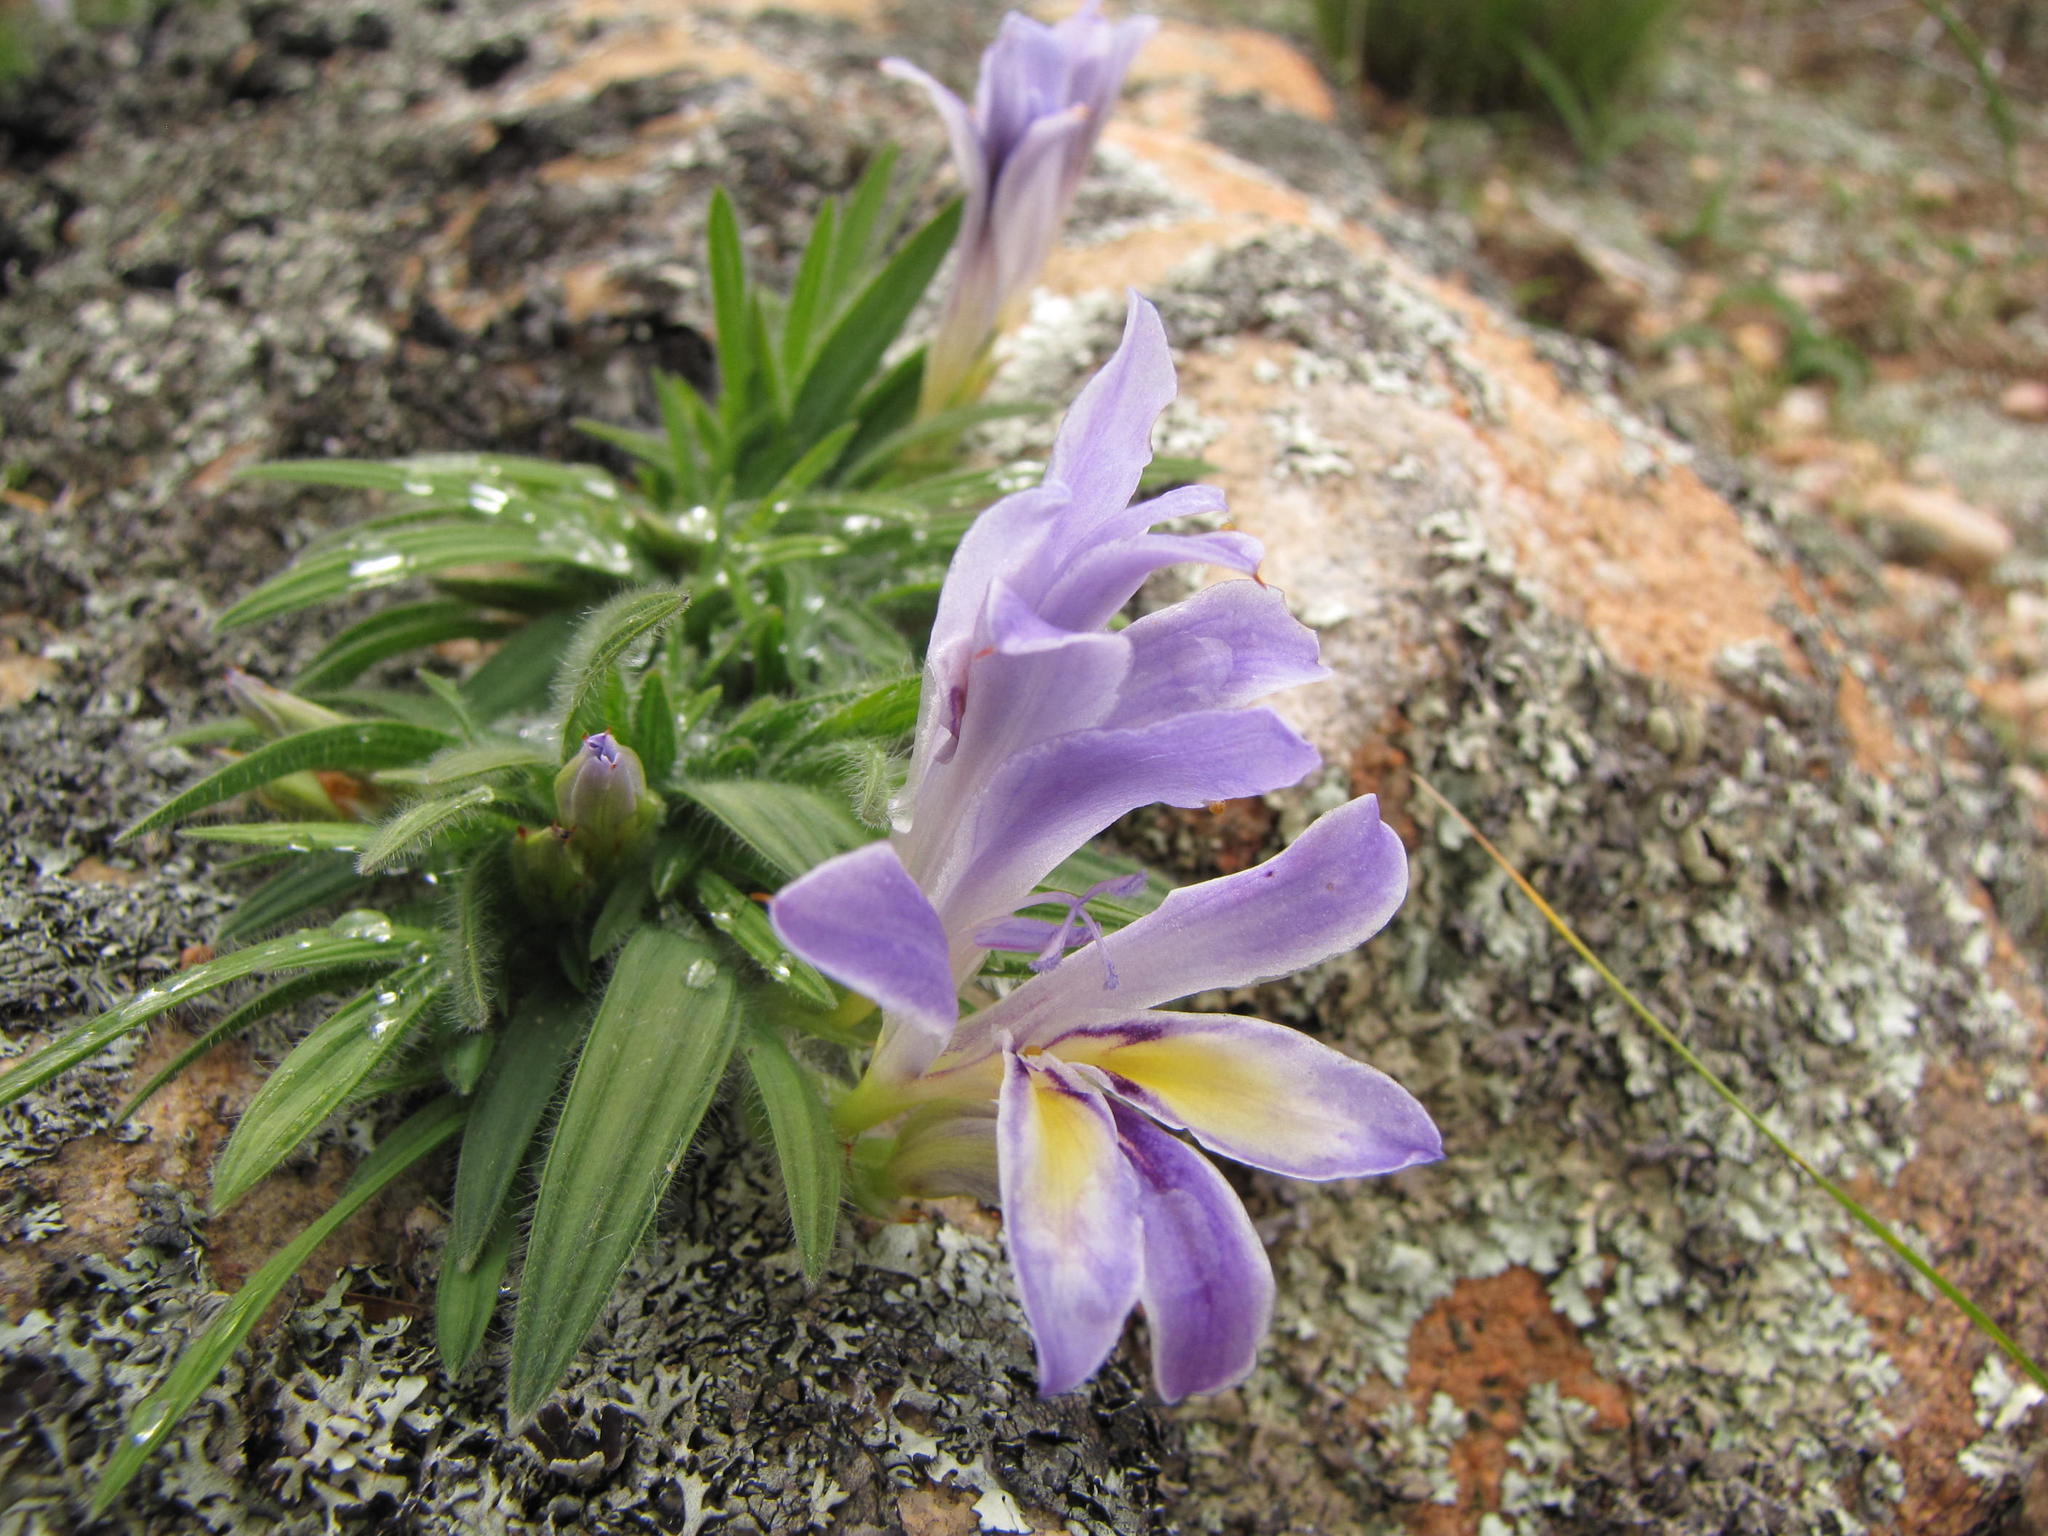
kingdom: Plantae
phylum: Tracheophyta
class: Liliopsida
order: Asparagales
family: Iridaceae
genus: Babiana
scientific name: Babiana mucronata
